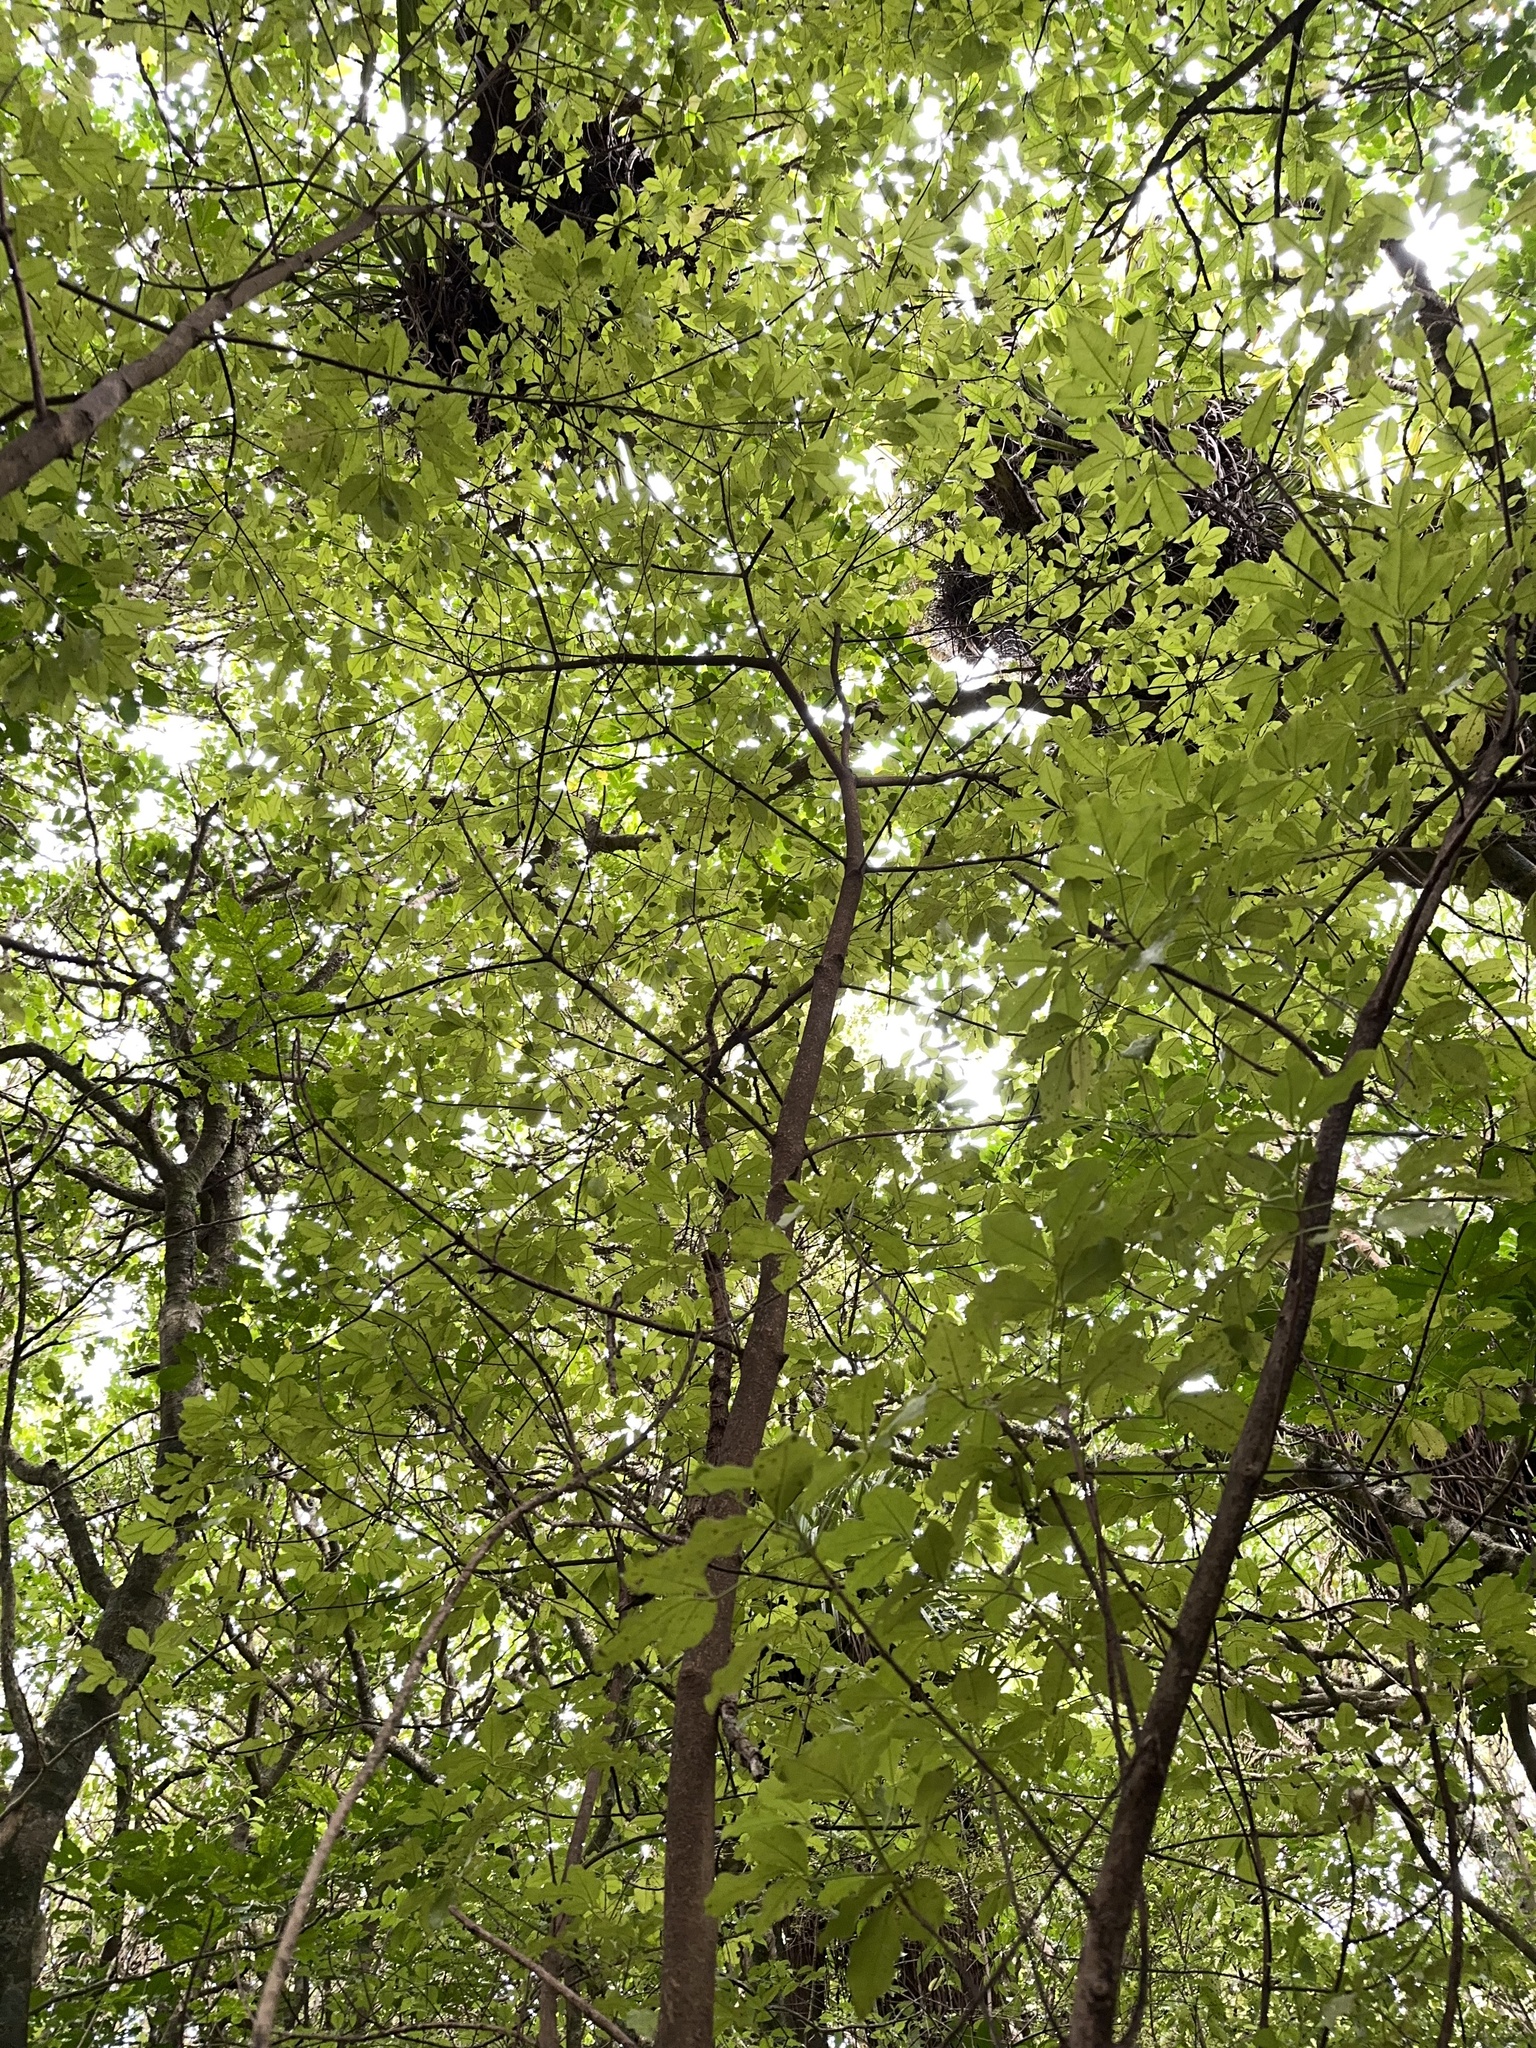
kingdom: Plantae
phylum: Tracheophyta
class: Magnoliopsida
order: Sapindales
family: Rutaceae
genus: Melicope
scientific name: Melicope ternata
